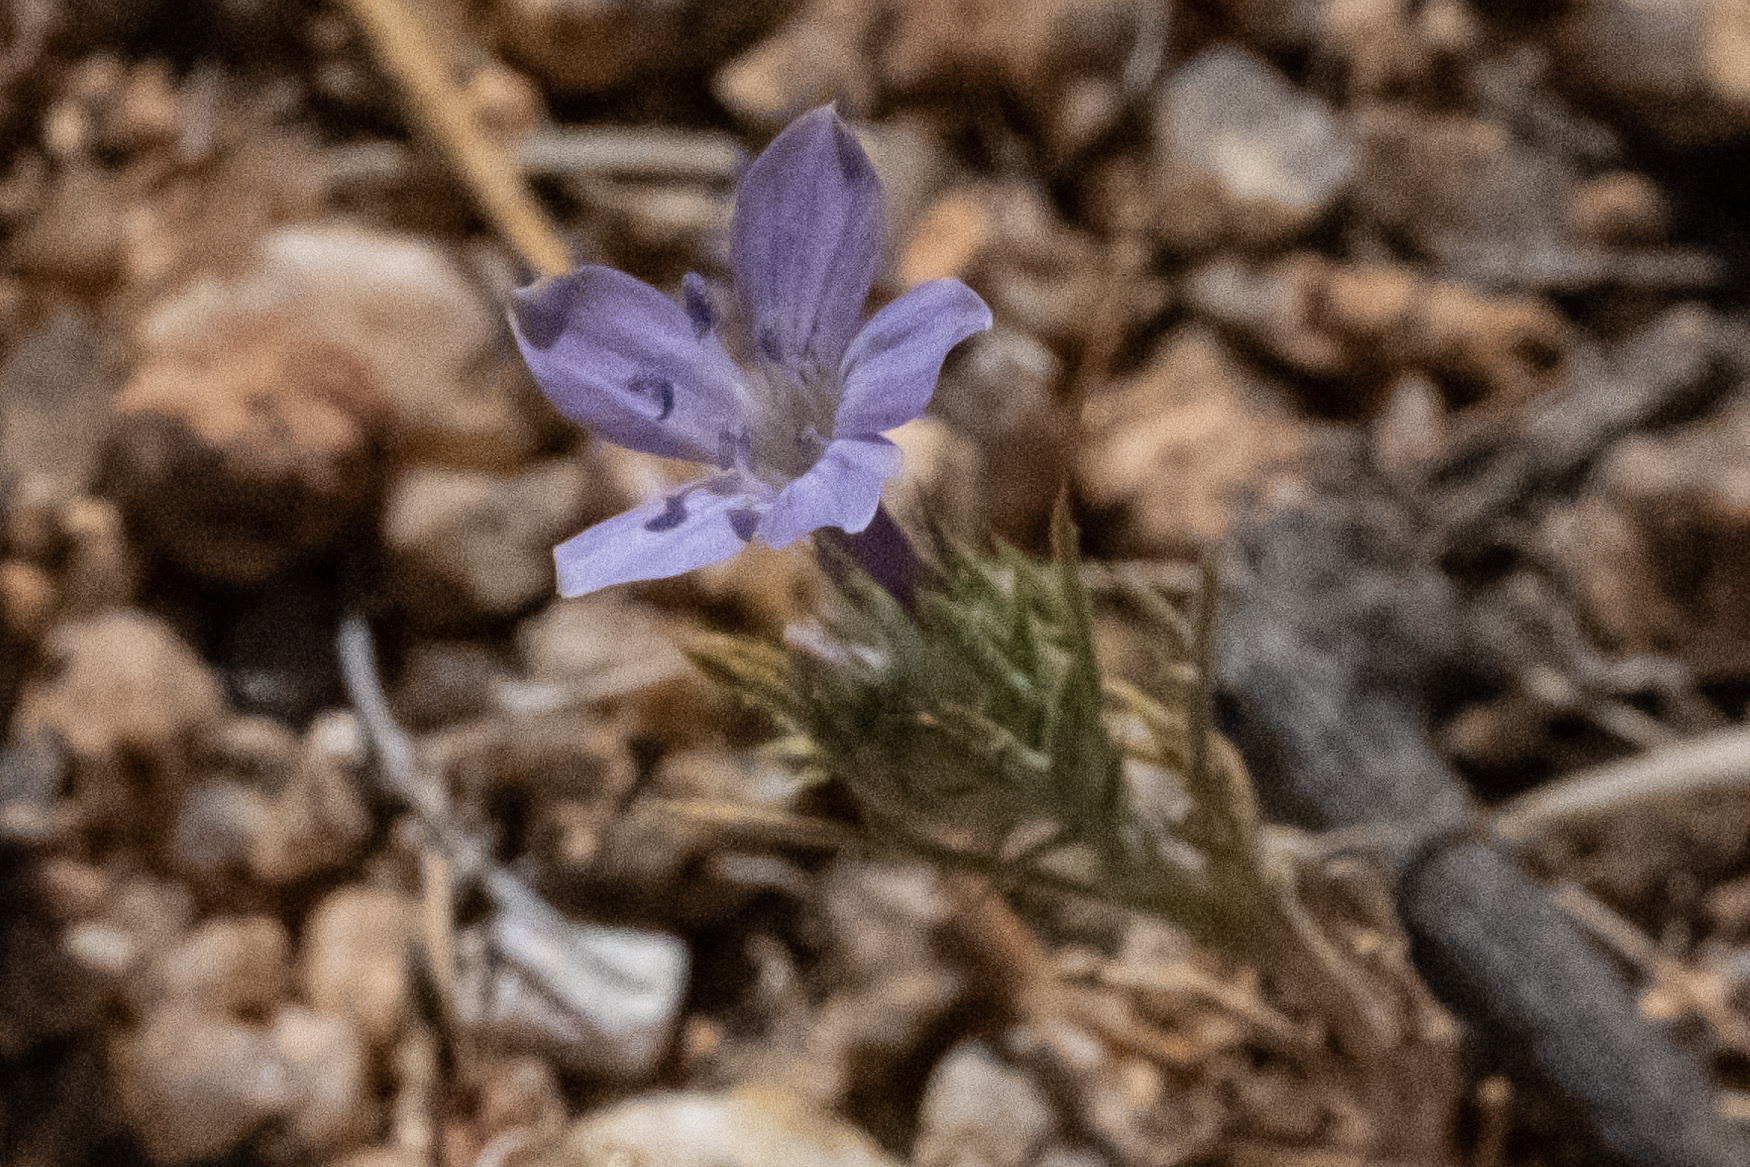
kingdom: Plantae
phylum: Tracheophyta
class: Magnoliopsida
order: Ericales
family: Polemoniaceae
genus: Eriastrum
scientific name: Eriastrum eremicum
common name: Desert eriastrum
